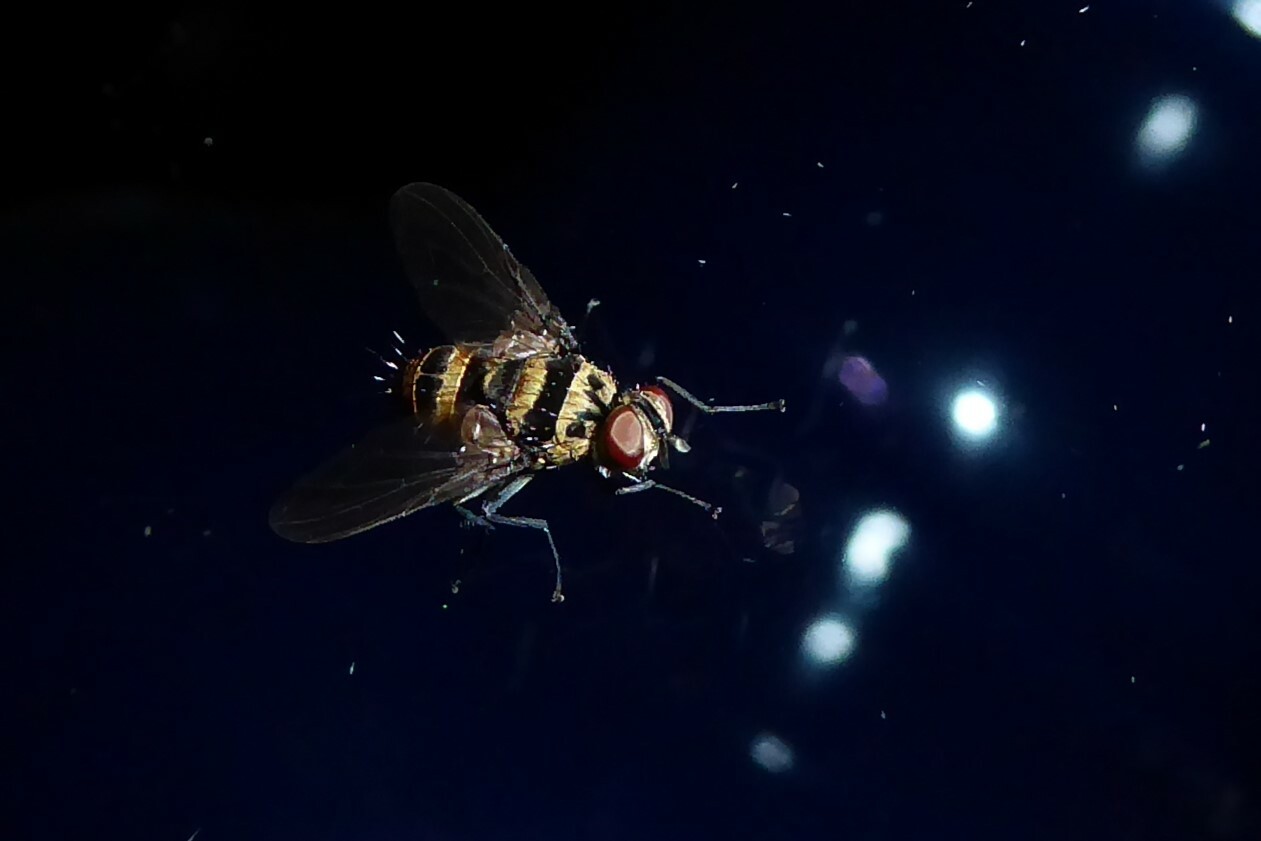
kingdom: Animalia
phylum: Arthropoda
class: Insecta
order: Diptera
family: Tachinidae
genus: Trigonospila
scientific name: Trigonospila brevifacies
